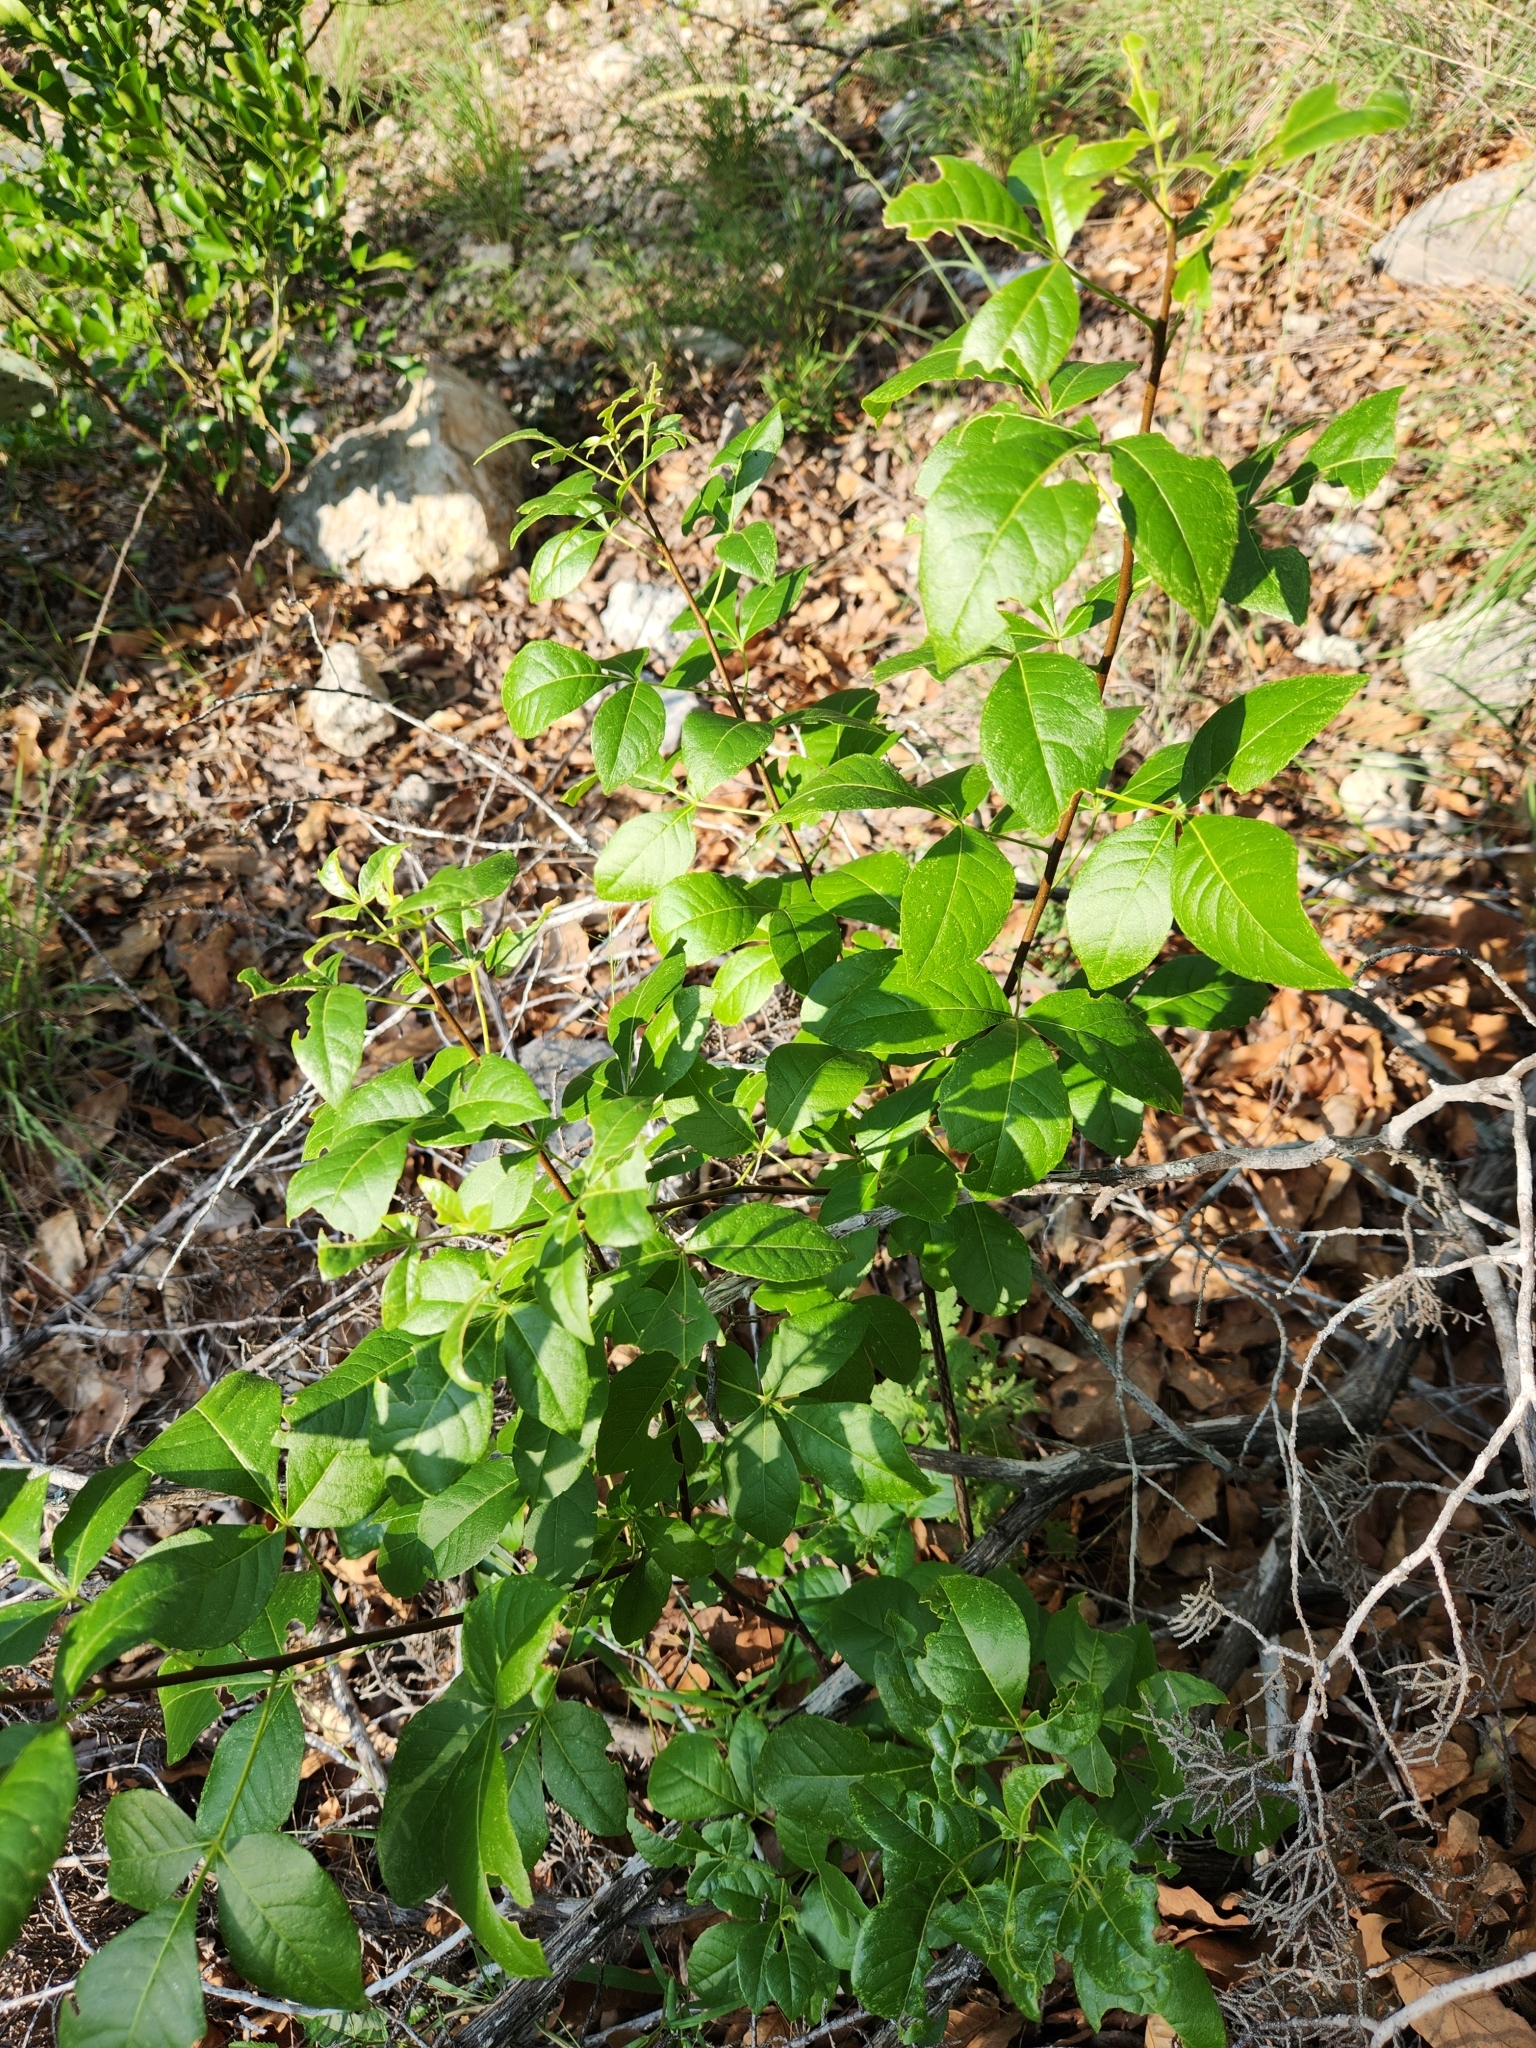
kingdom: Plantae
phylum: Tracheophyta
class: Magnoliopsida
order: Sapindales
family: Rutaceae
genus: Ptelea
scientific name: Ptelea trifoliata
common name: Common hop-tree
